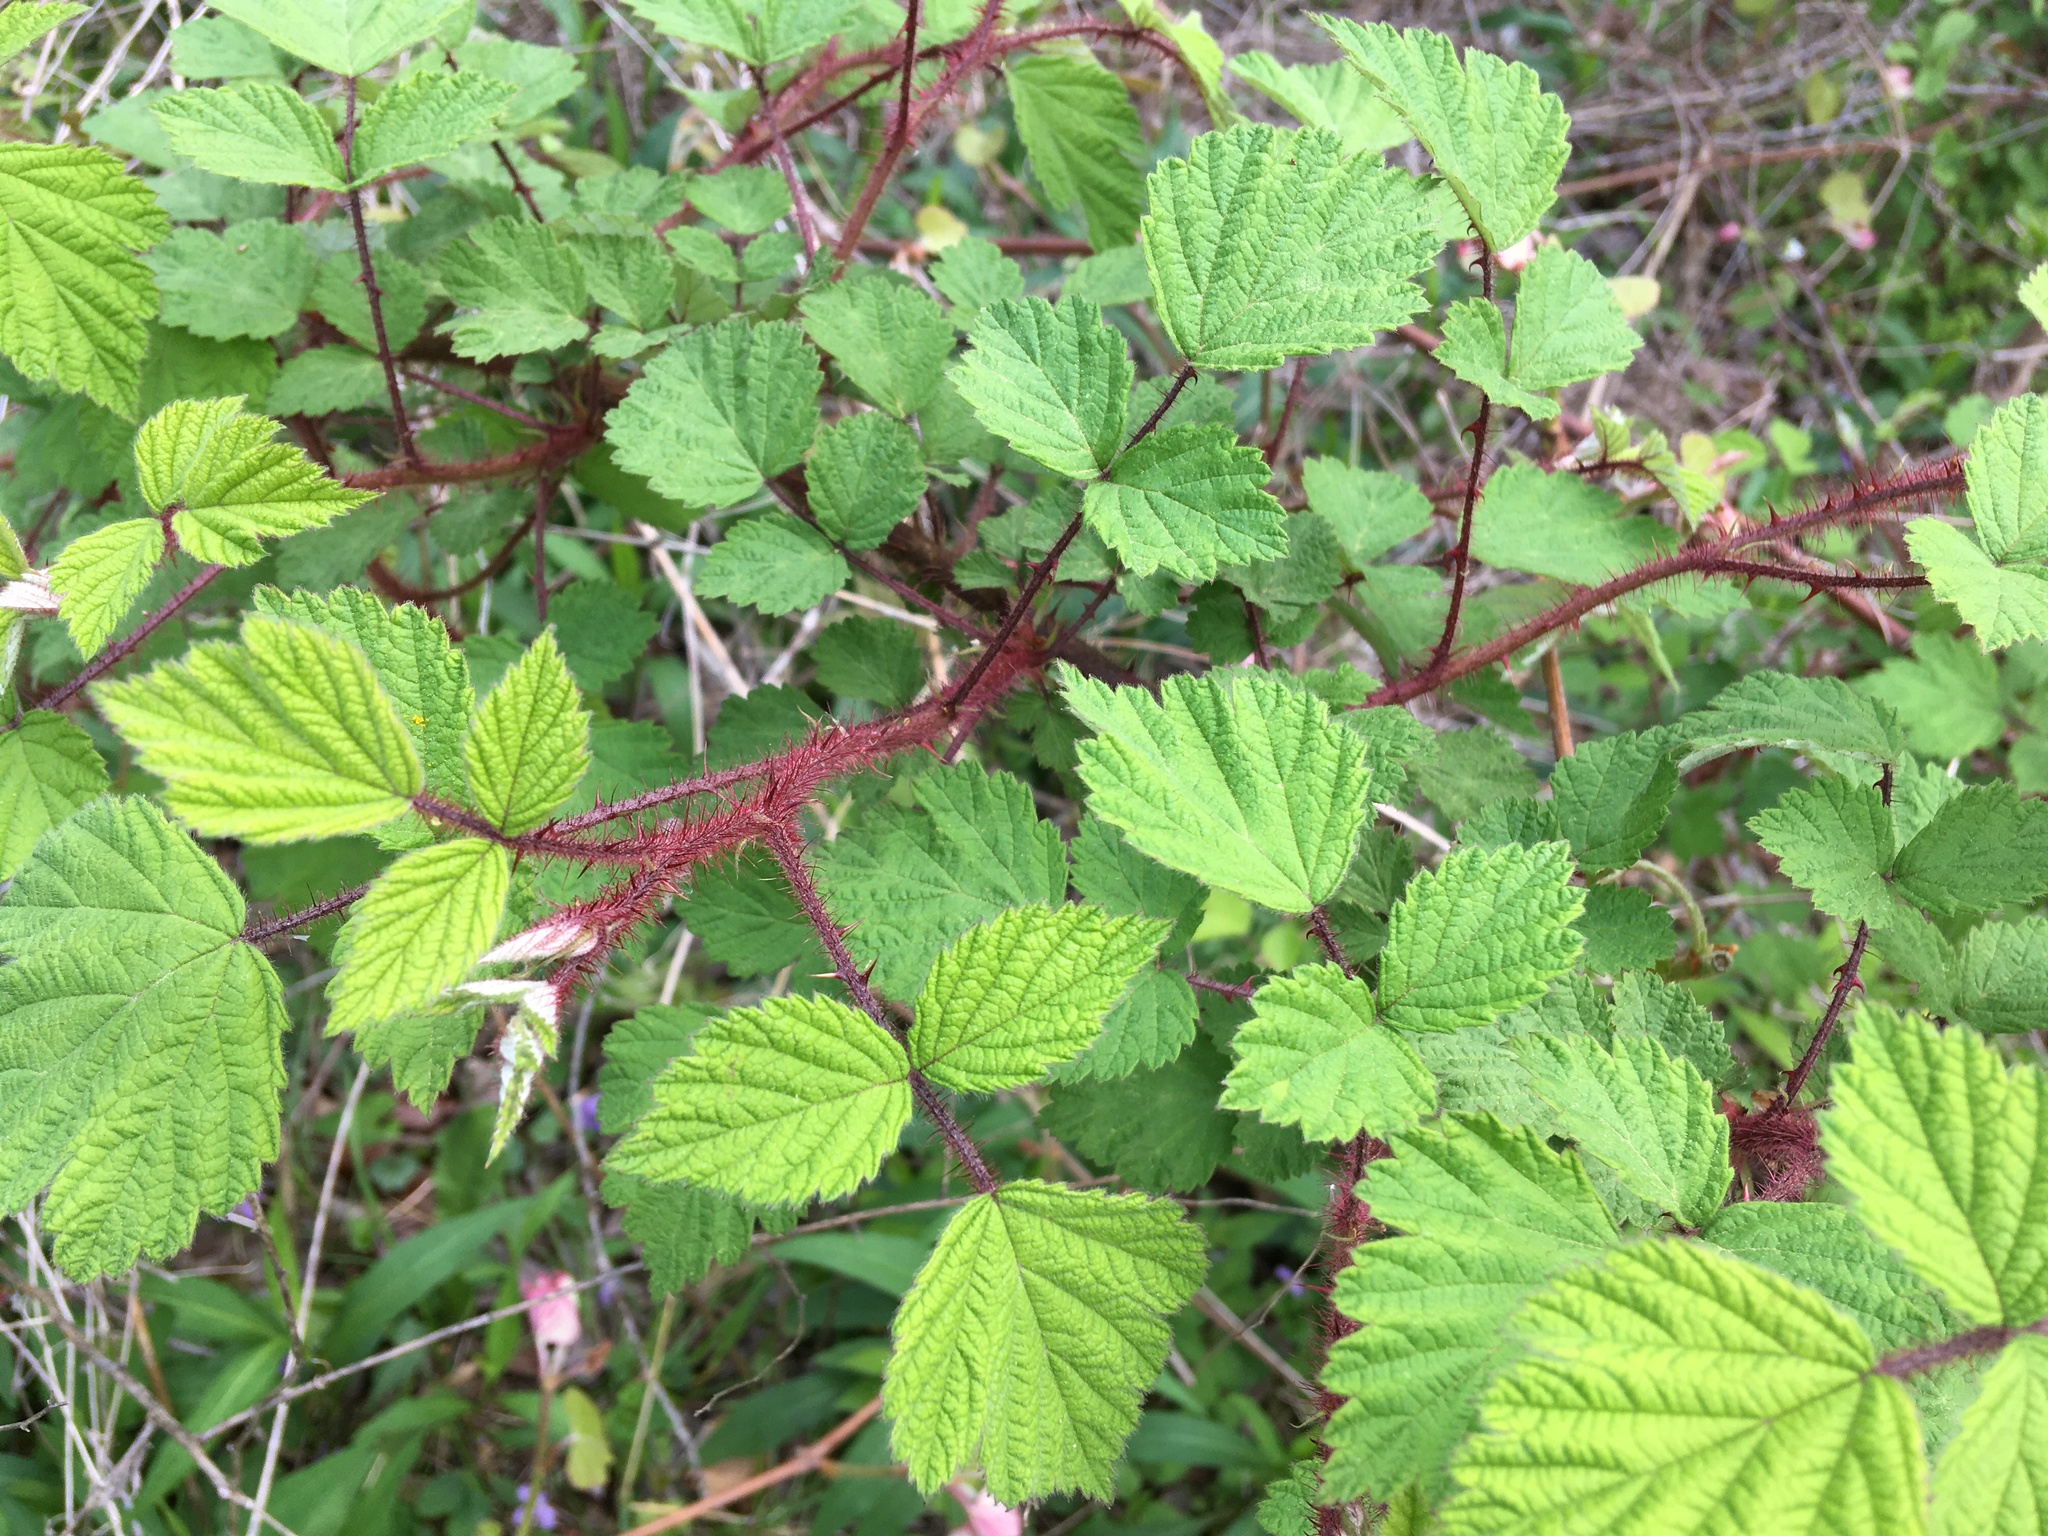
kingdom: Plantae
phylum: Tracheophyta
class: Magnoliopsida
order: Rosales
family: Rosaceae
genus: Rubus
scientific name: Rubus phoenicolasius
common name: Japanese wineberry
